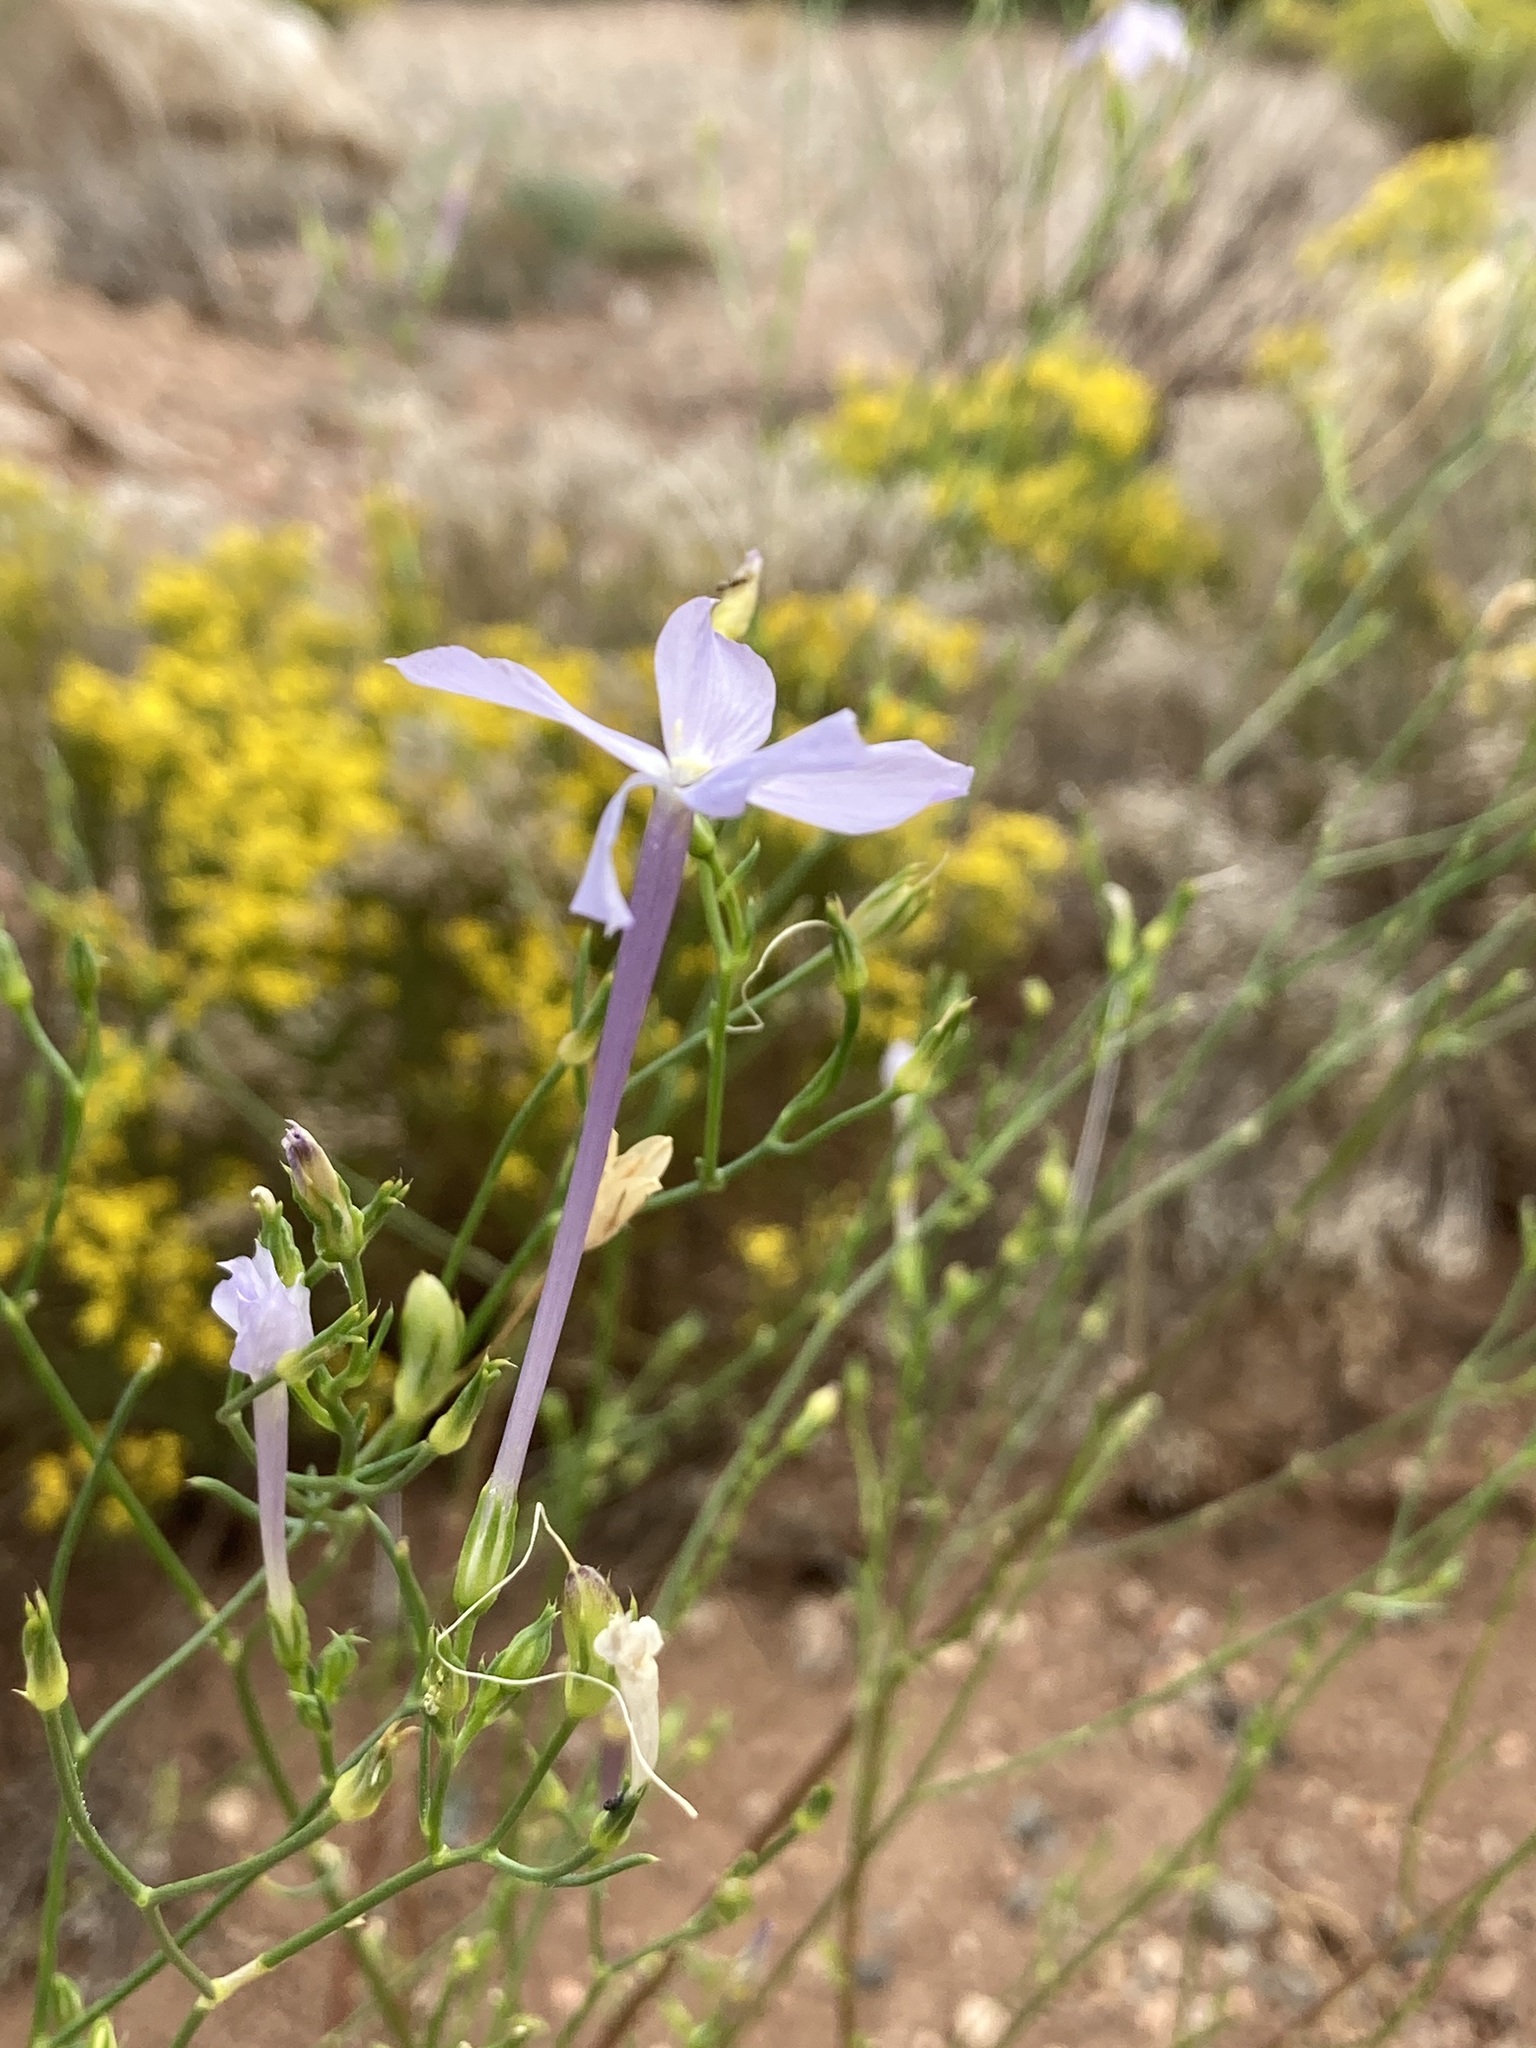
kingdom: Plantae
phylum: Tracheophyta
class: Magnoliopsida
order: Ericales
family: Polemoniaceae
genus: Ipomopsis
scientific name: Ipomopsis longiflora
